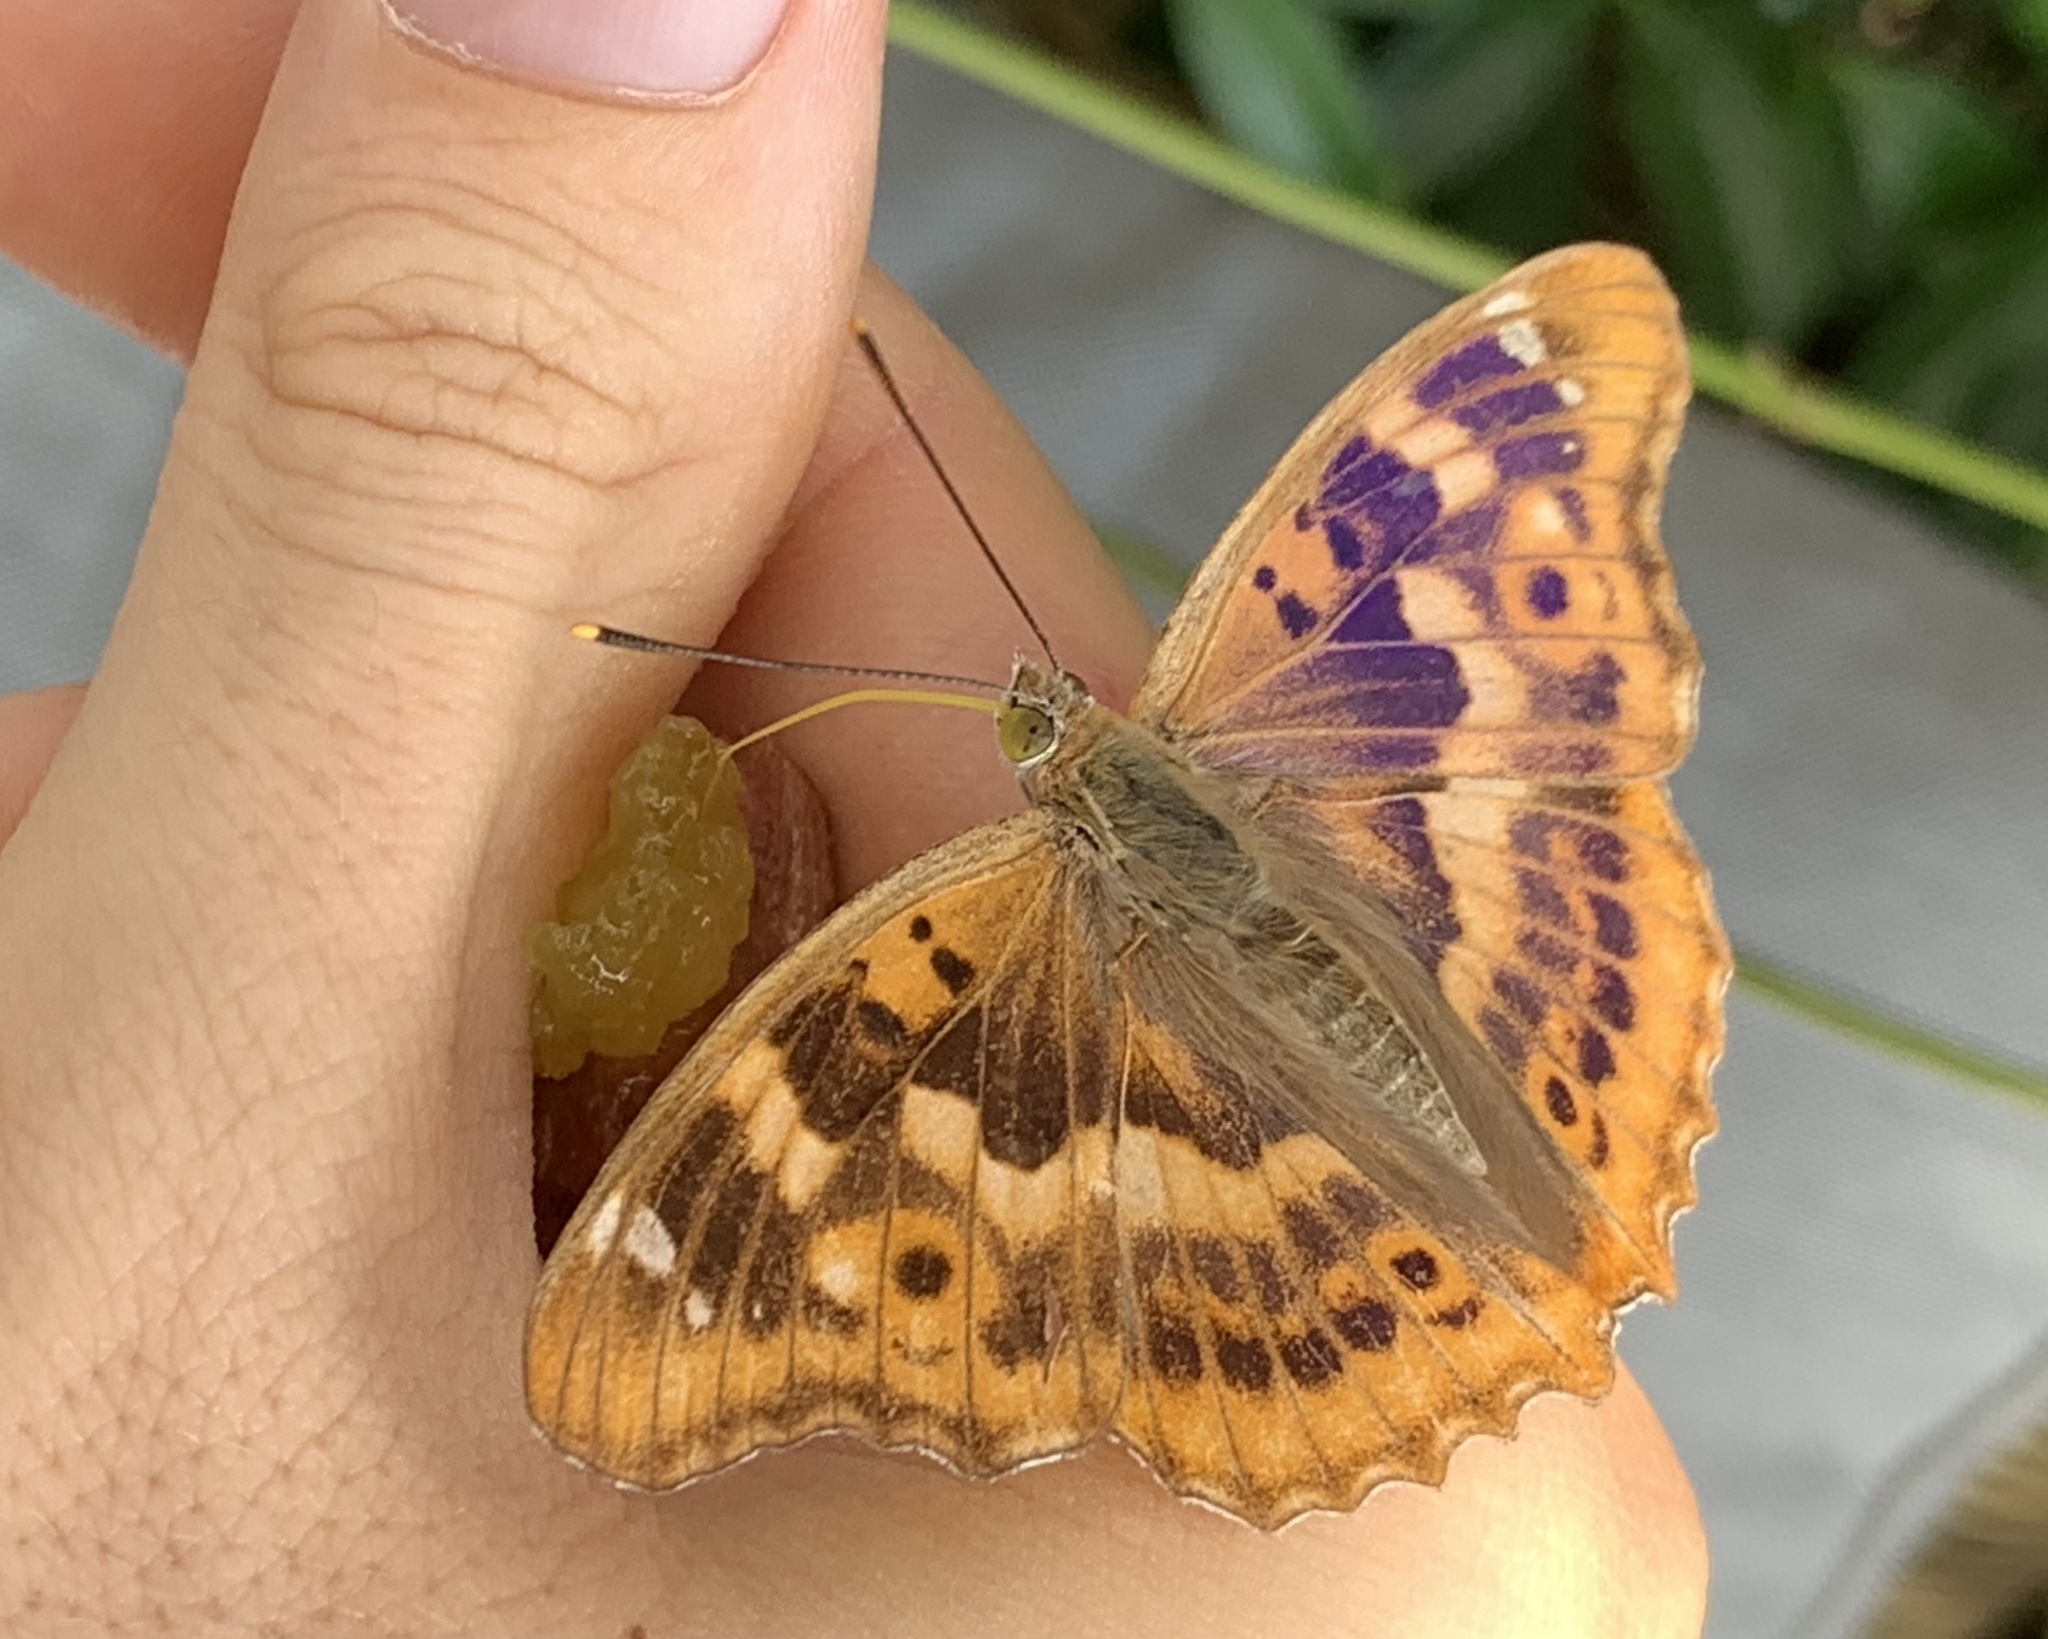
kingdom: Animalia
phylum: Arthropoda
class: Insecta
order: Lepidoptera
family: Nymphalidae
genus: Apatura
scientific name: Apatura ilia
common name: Lesser purple emperor
